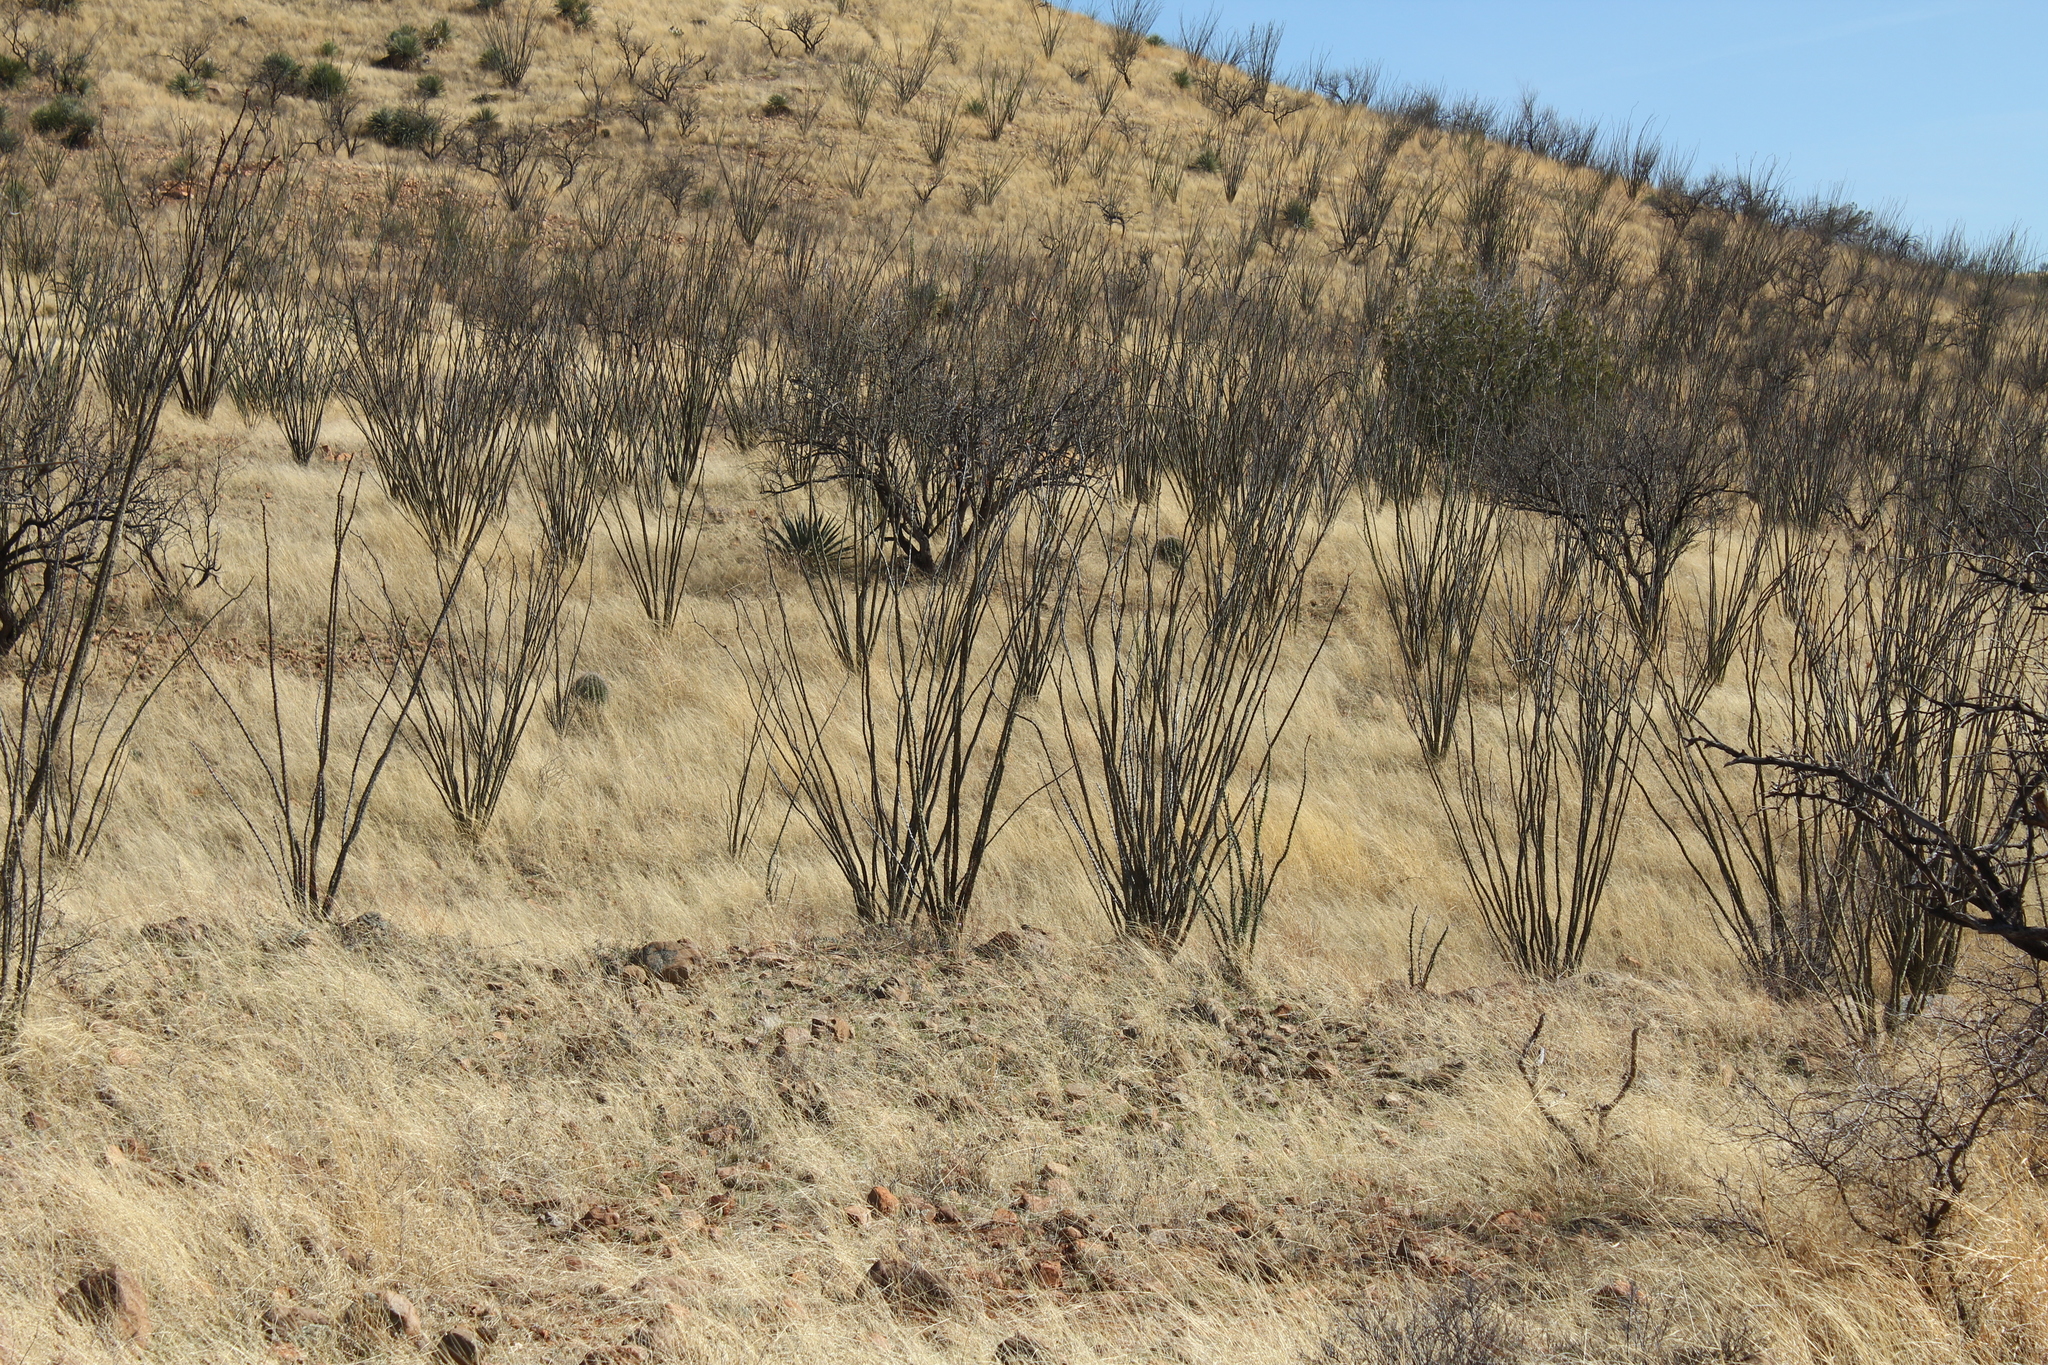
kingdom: Plantae
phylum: Tracheophyta
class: Magnoliopsida
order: Ericales
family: Fouquieriaceae
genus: Fouquieria
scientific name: Fouquieria splendens
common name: Vine-cactus
